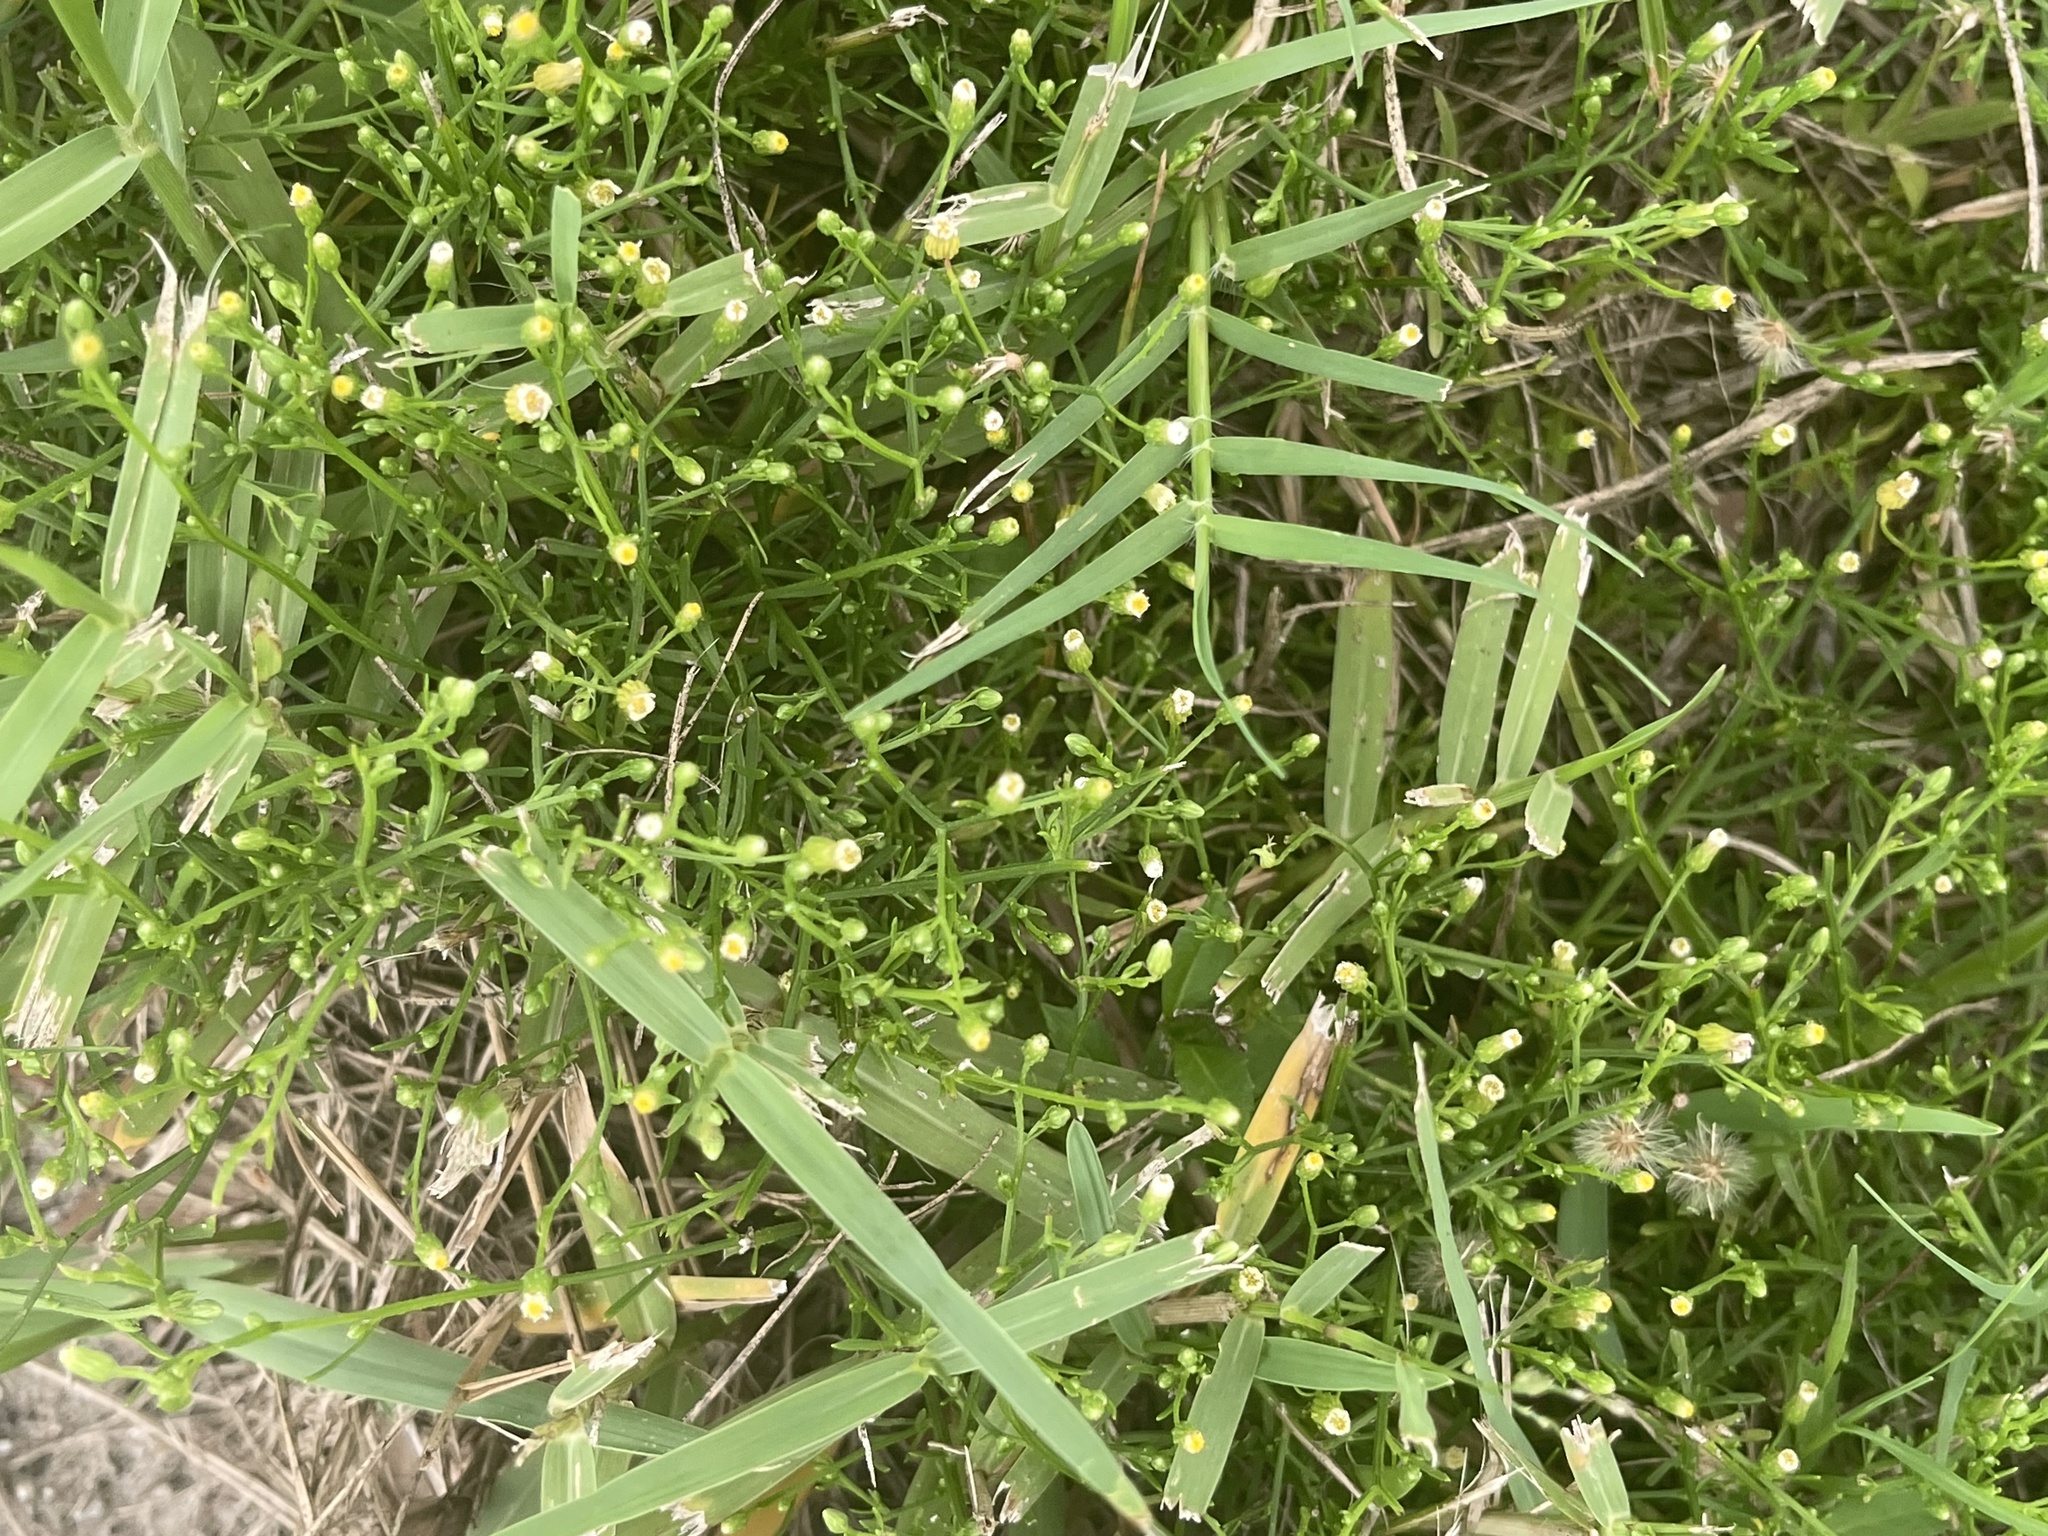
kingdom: Plantae
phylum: Tracheophyta
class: Magnoliopsida
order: Asterales
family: Asteraceae
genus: Erigeron
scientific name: Erigeron canadensis
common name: Canadian fleabane
